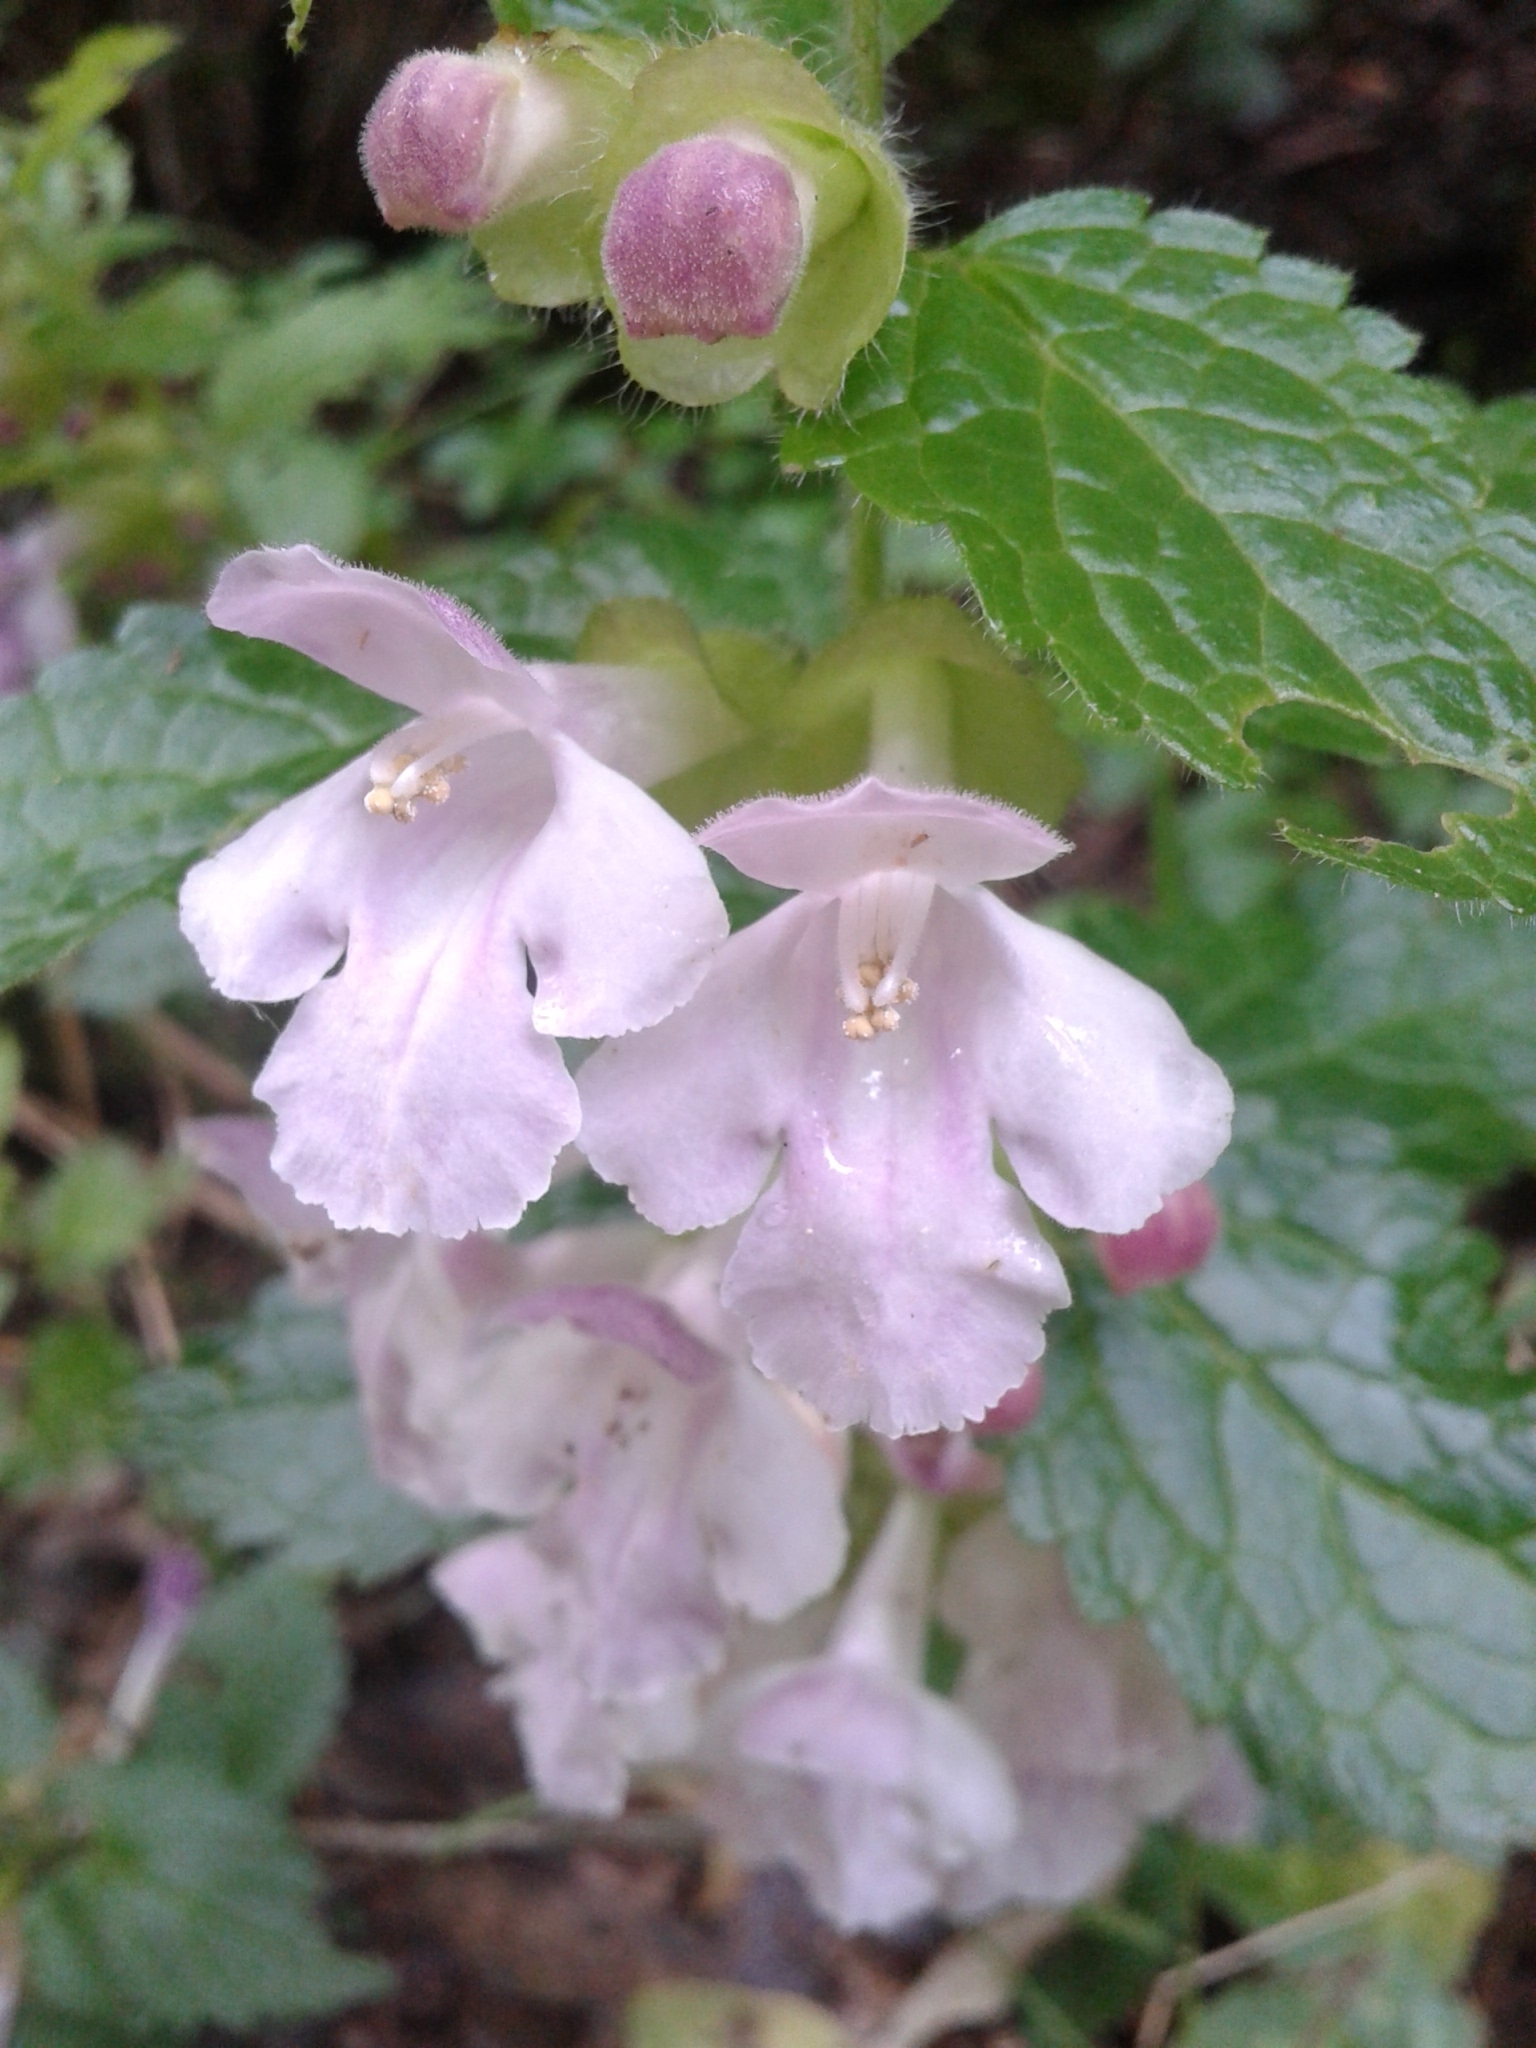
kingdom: Plantae
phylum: Tracheophyta
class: Magnoliopsida
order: Lamiales
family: Lamiaceae
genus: Melittis
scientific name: Melittis melissophyllum
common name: Bastard balm
